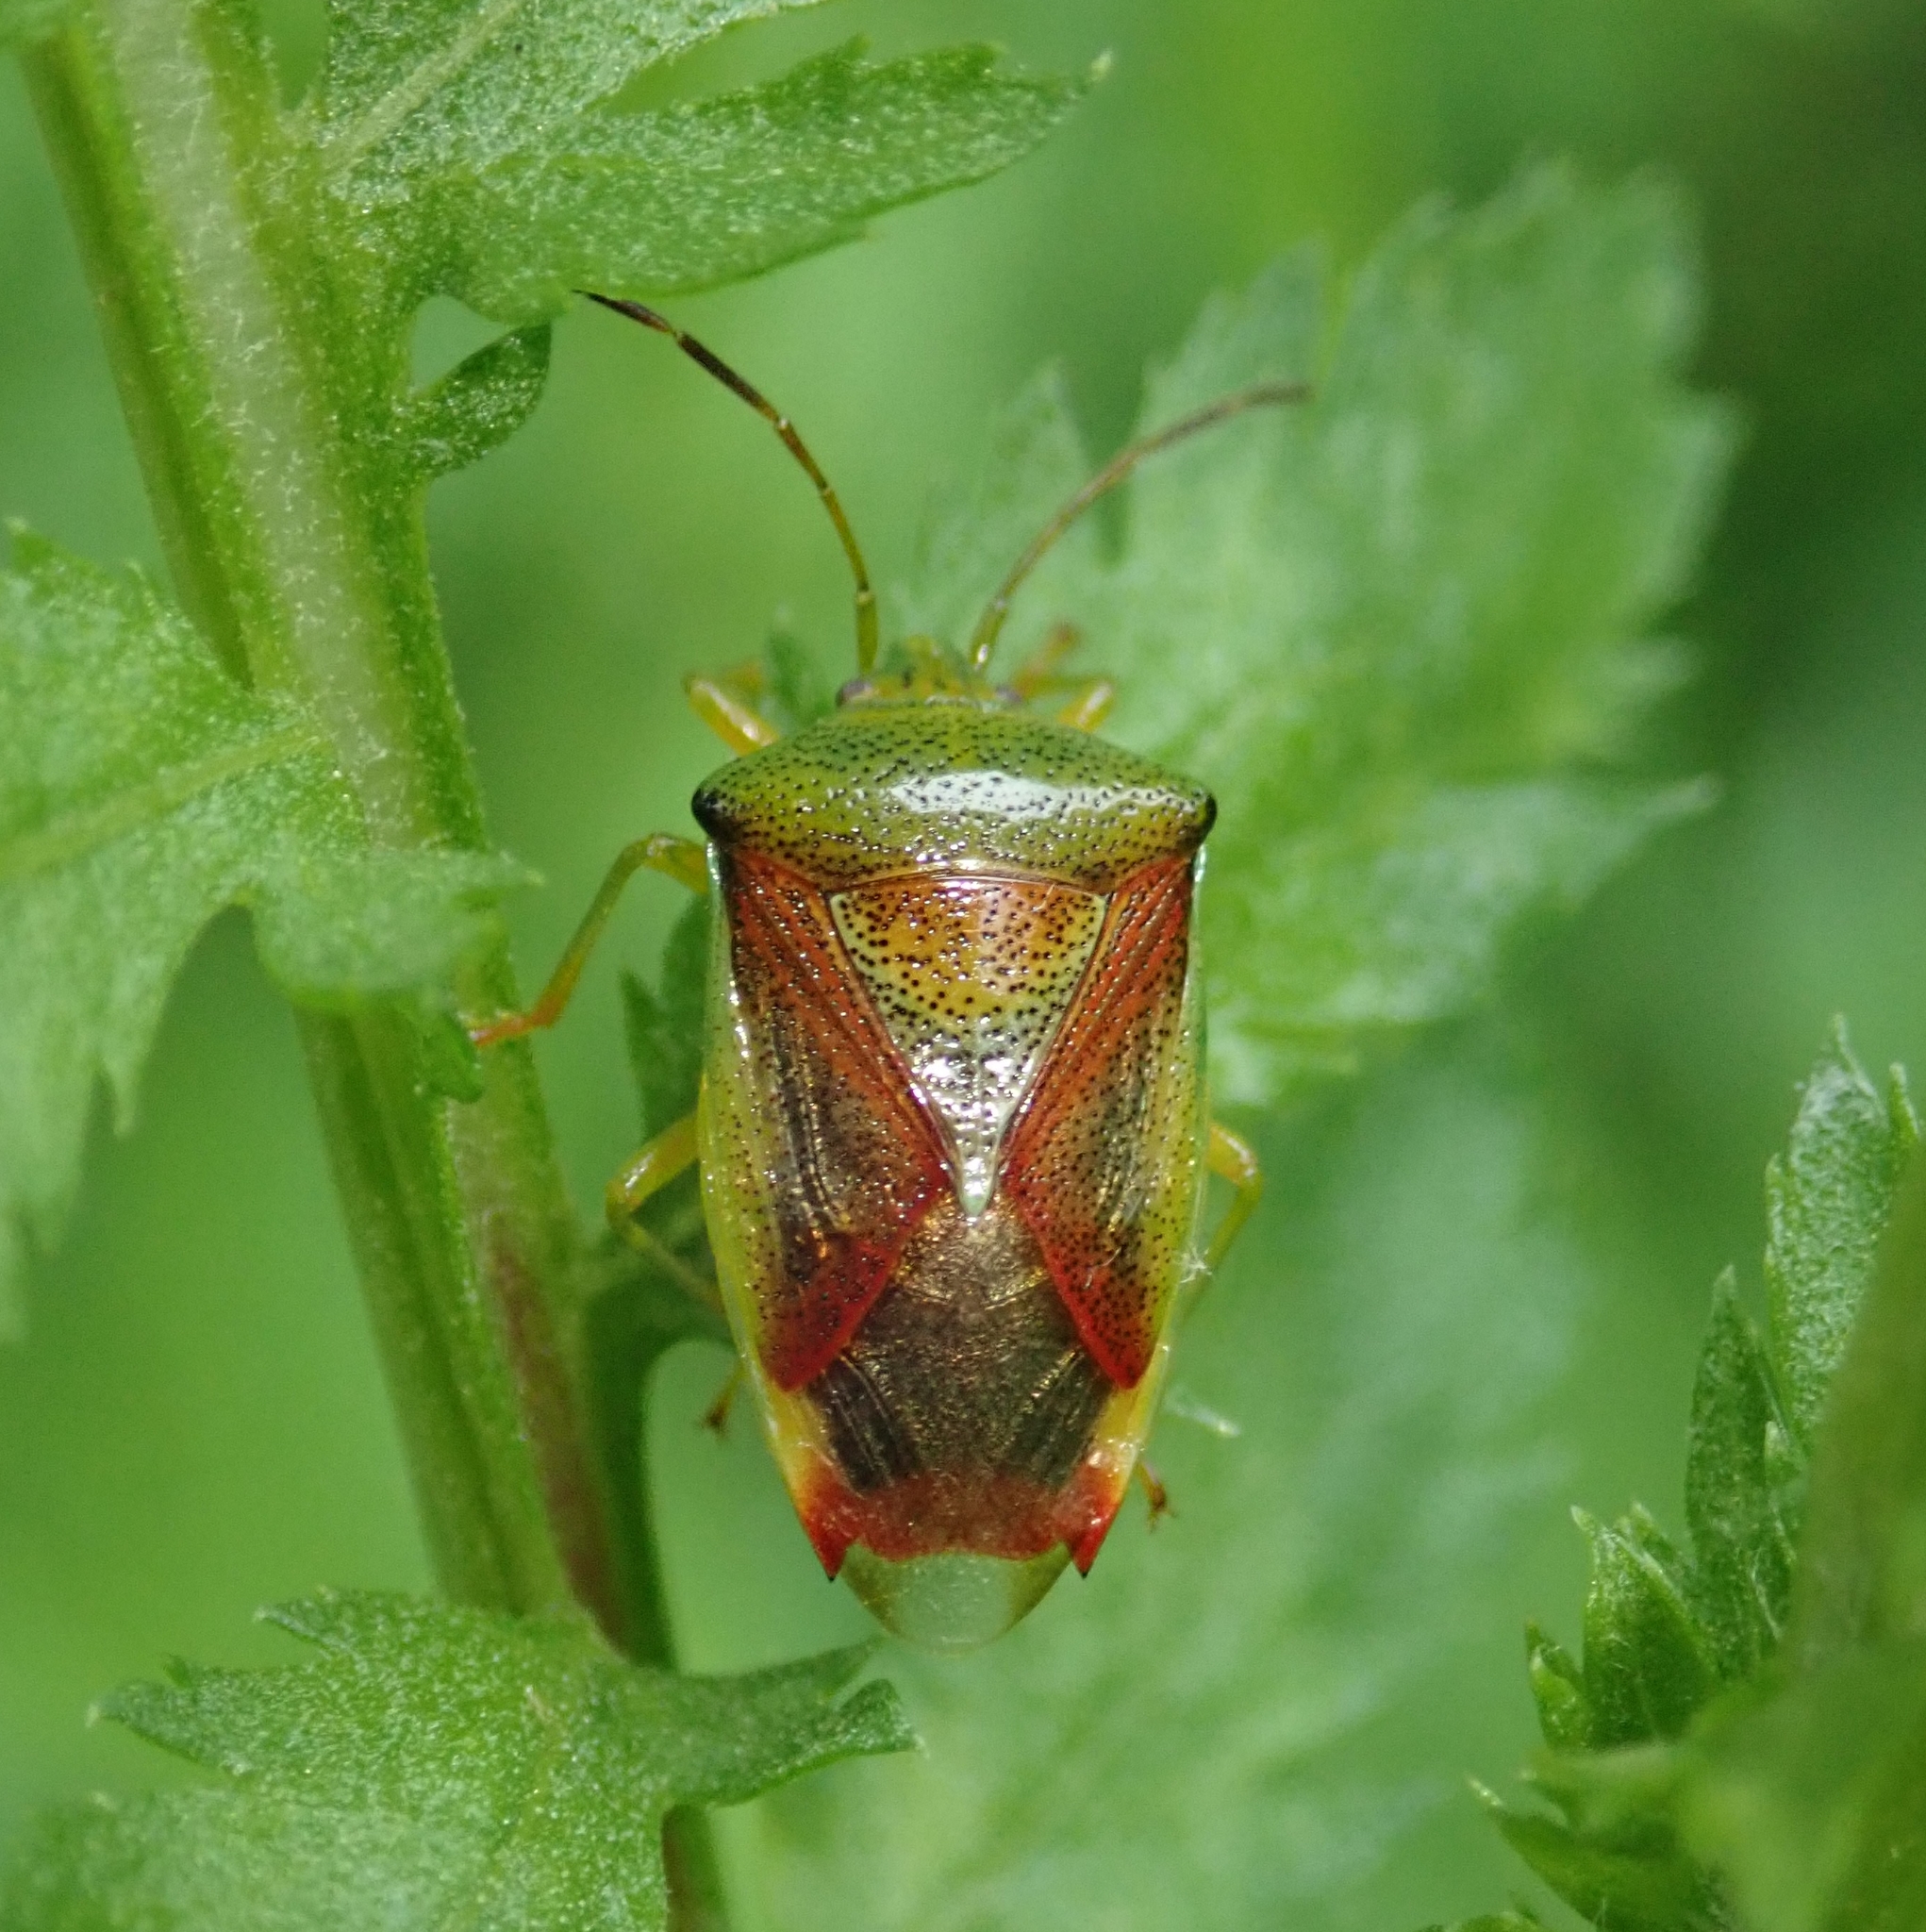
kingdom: Animalia
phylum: Arthropoda
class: Insecta
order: Hemiptera
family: Acanthosomatidae
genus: Elasmostethus
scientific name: Elasmostethus interstinctus
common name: Birch shieldbug
